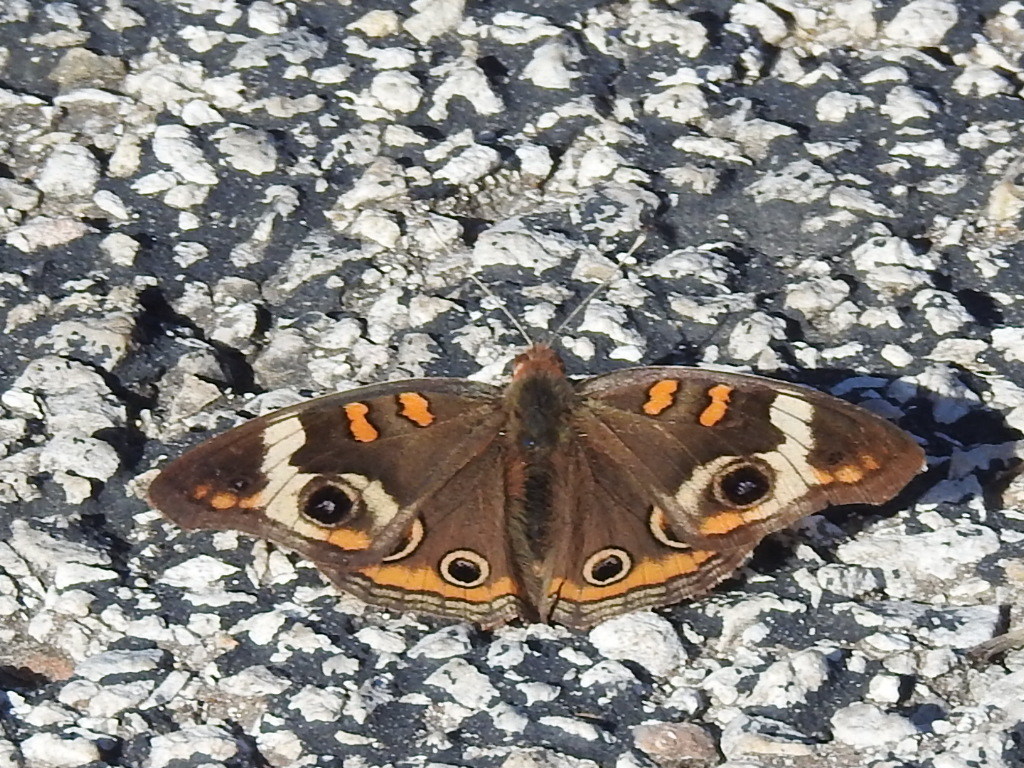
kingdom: Animalia
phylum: Arthropoda
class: Insecta
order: Lepidoptera
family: Nymphalidae
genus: Junonia
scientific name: Junonia coenia
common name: Common buckeye
